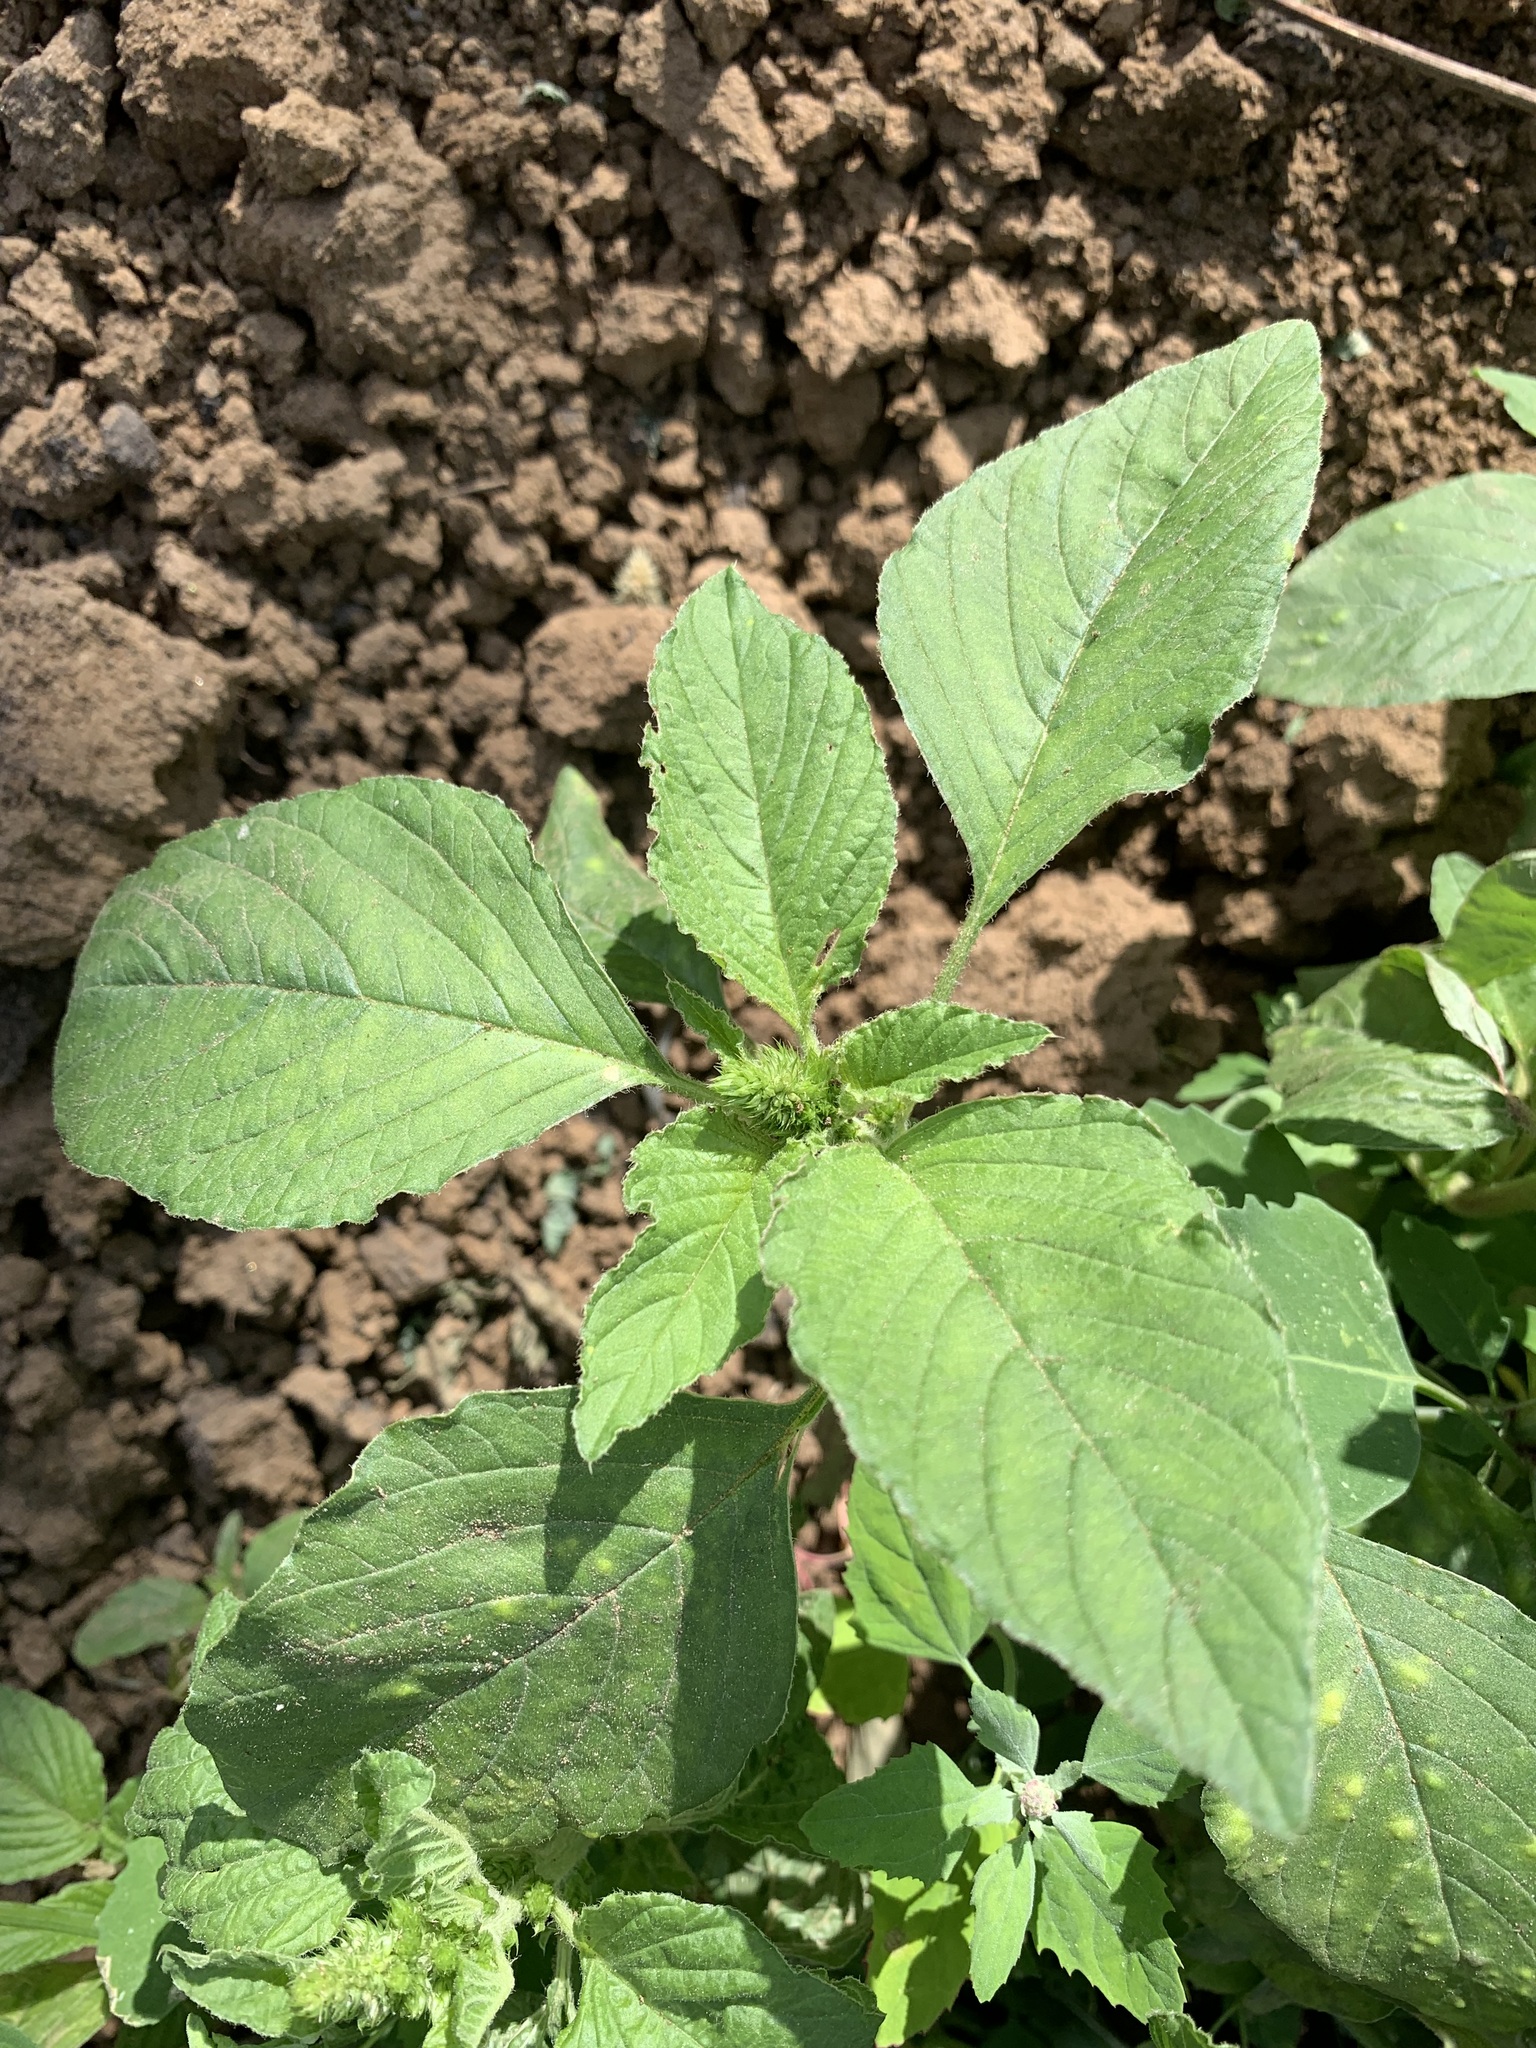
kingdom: Plantae
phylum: Tracheophyta
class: Magnoliopsida
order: Caryophyllales
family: Amaranthaceae
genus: Amaranthus
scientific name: Amaranthus retroflexus
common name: Redroot amaranth
